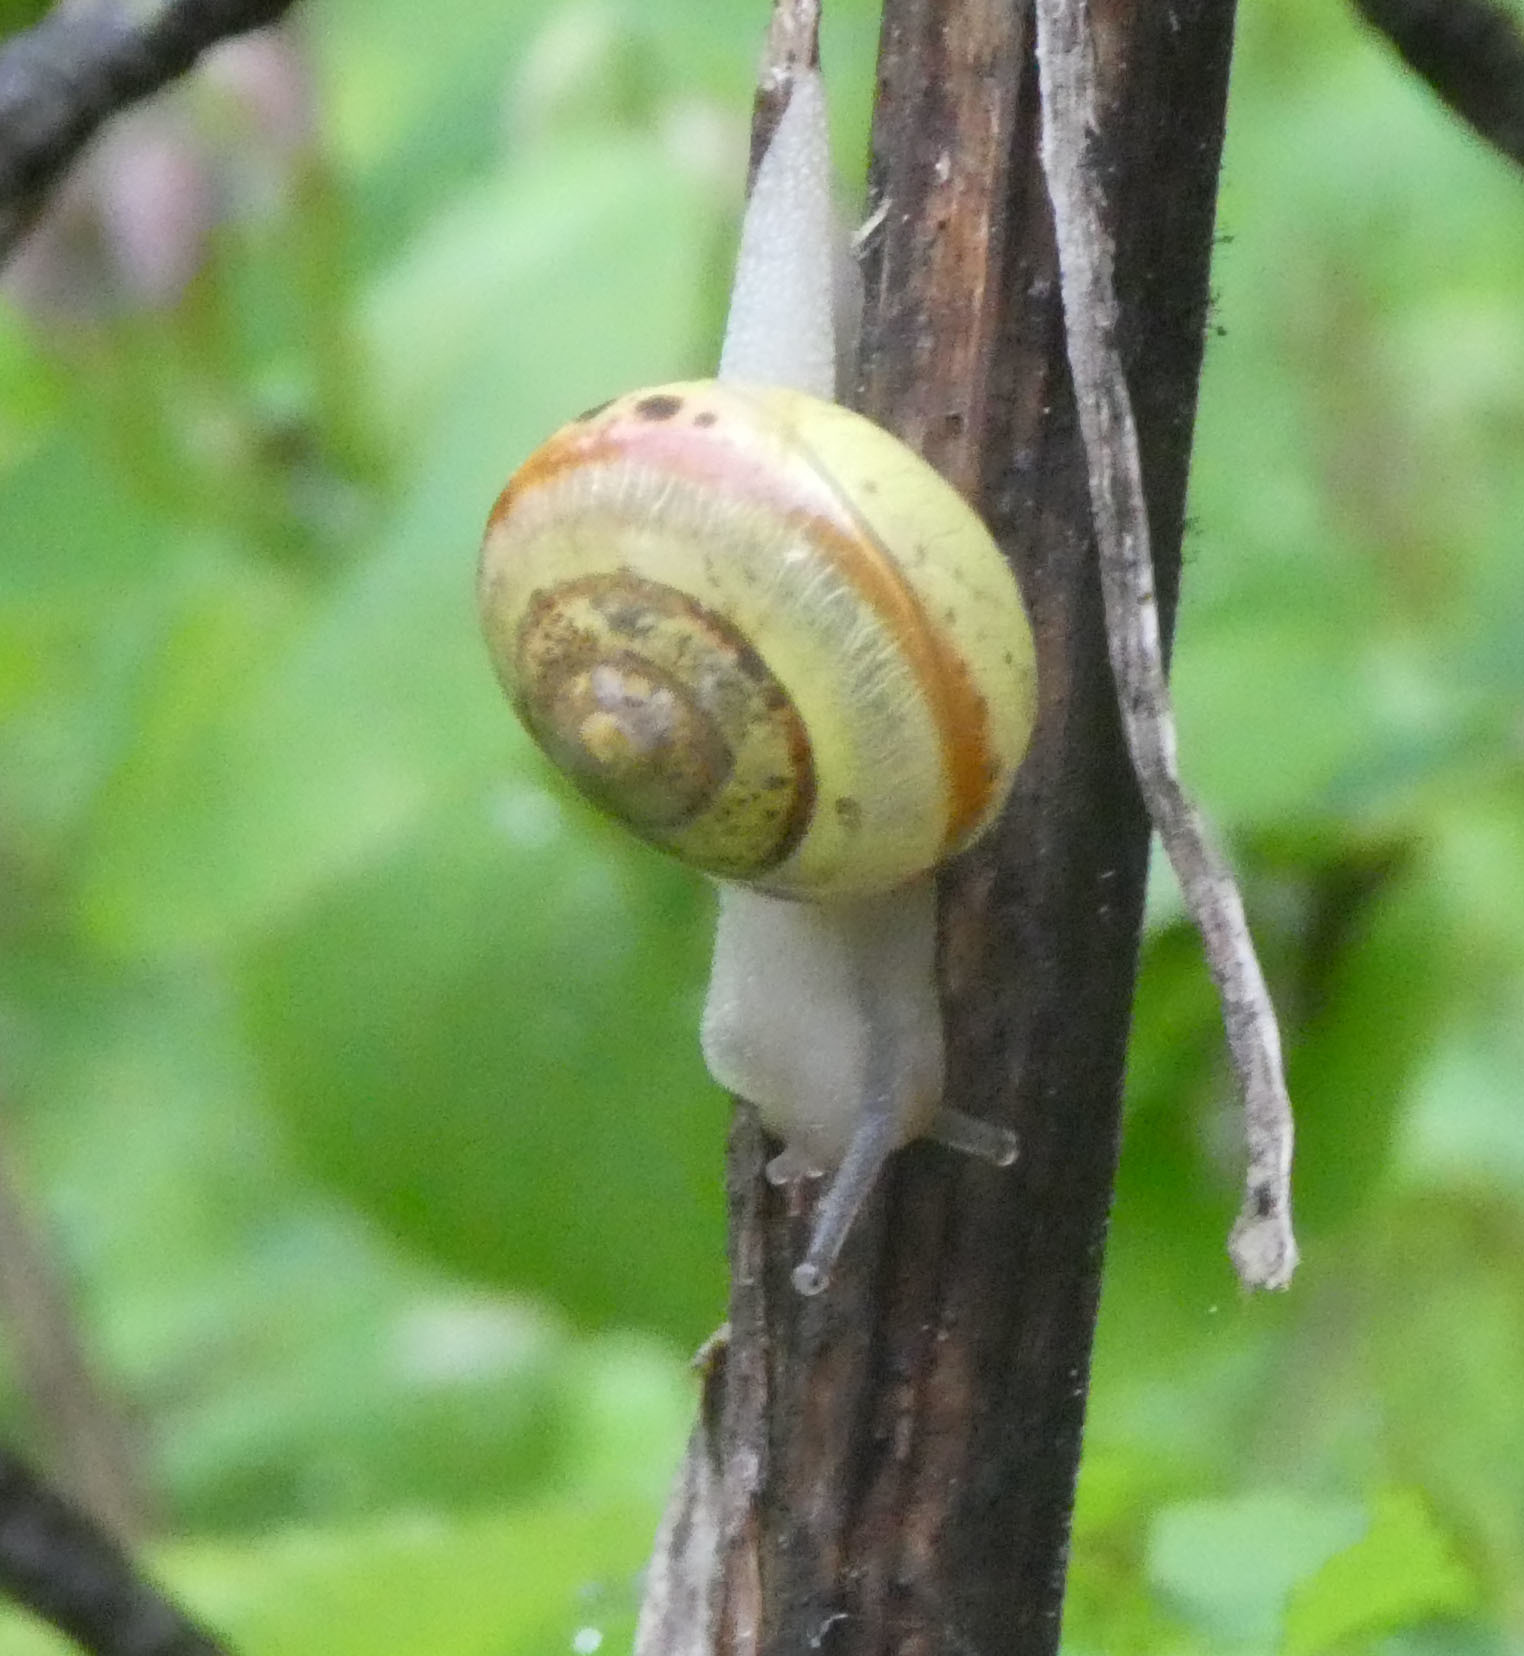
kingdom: Animalia
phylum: Mollusca
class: Gastropoda
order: Stylommatophora
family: Camaenidae
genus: Fruticicola
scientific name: Fruticicola fruticum
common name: Bush snail
